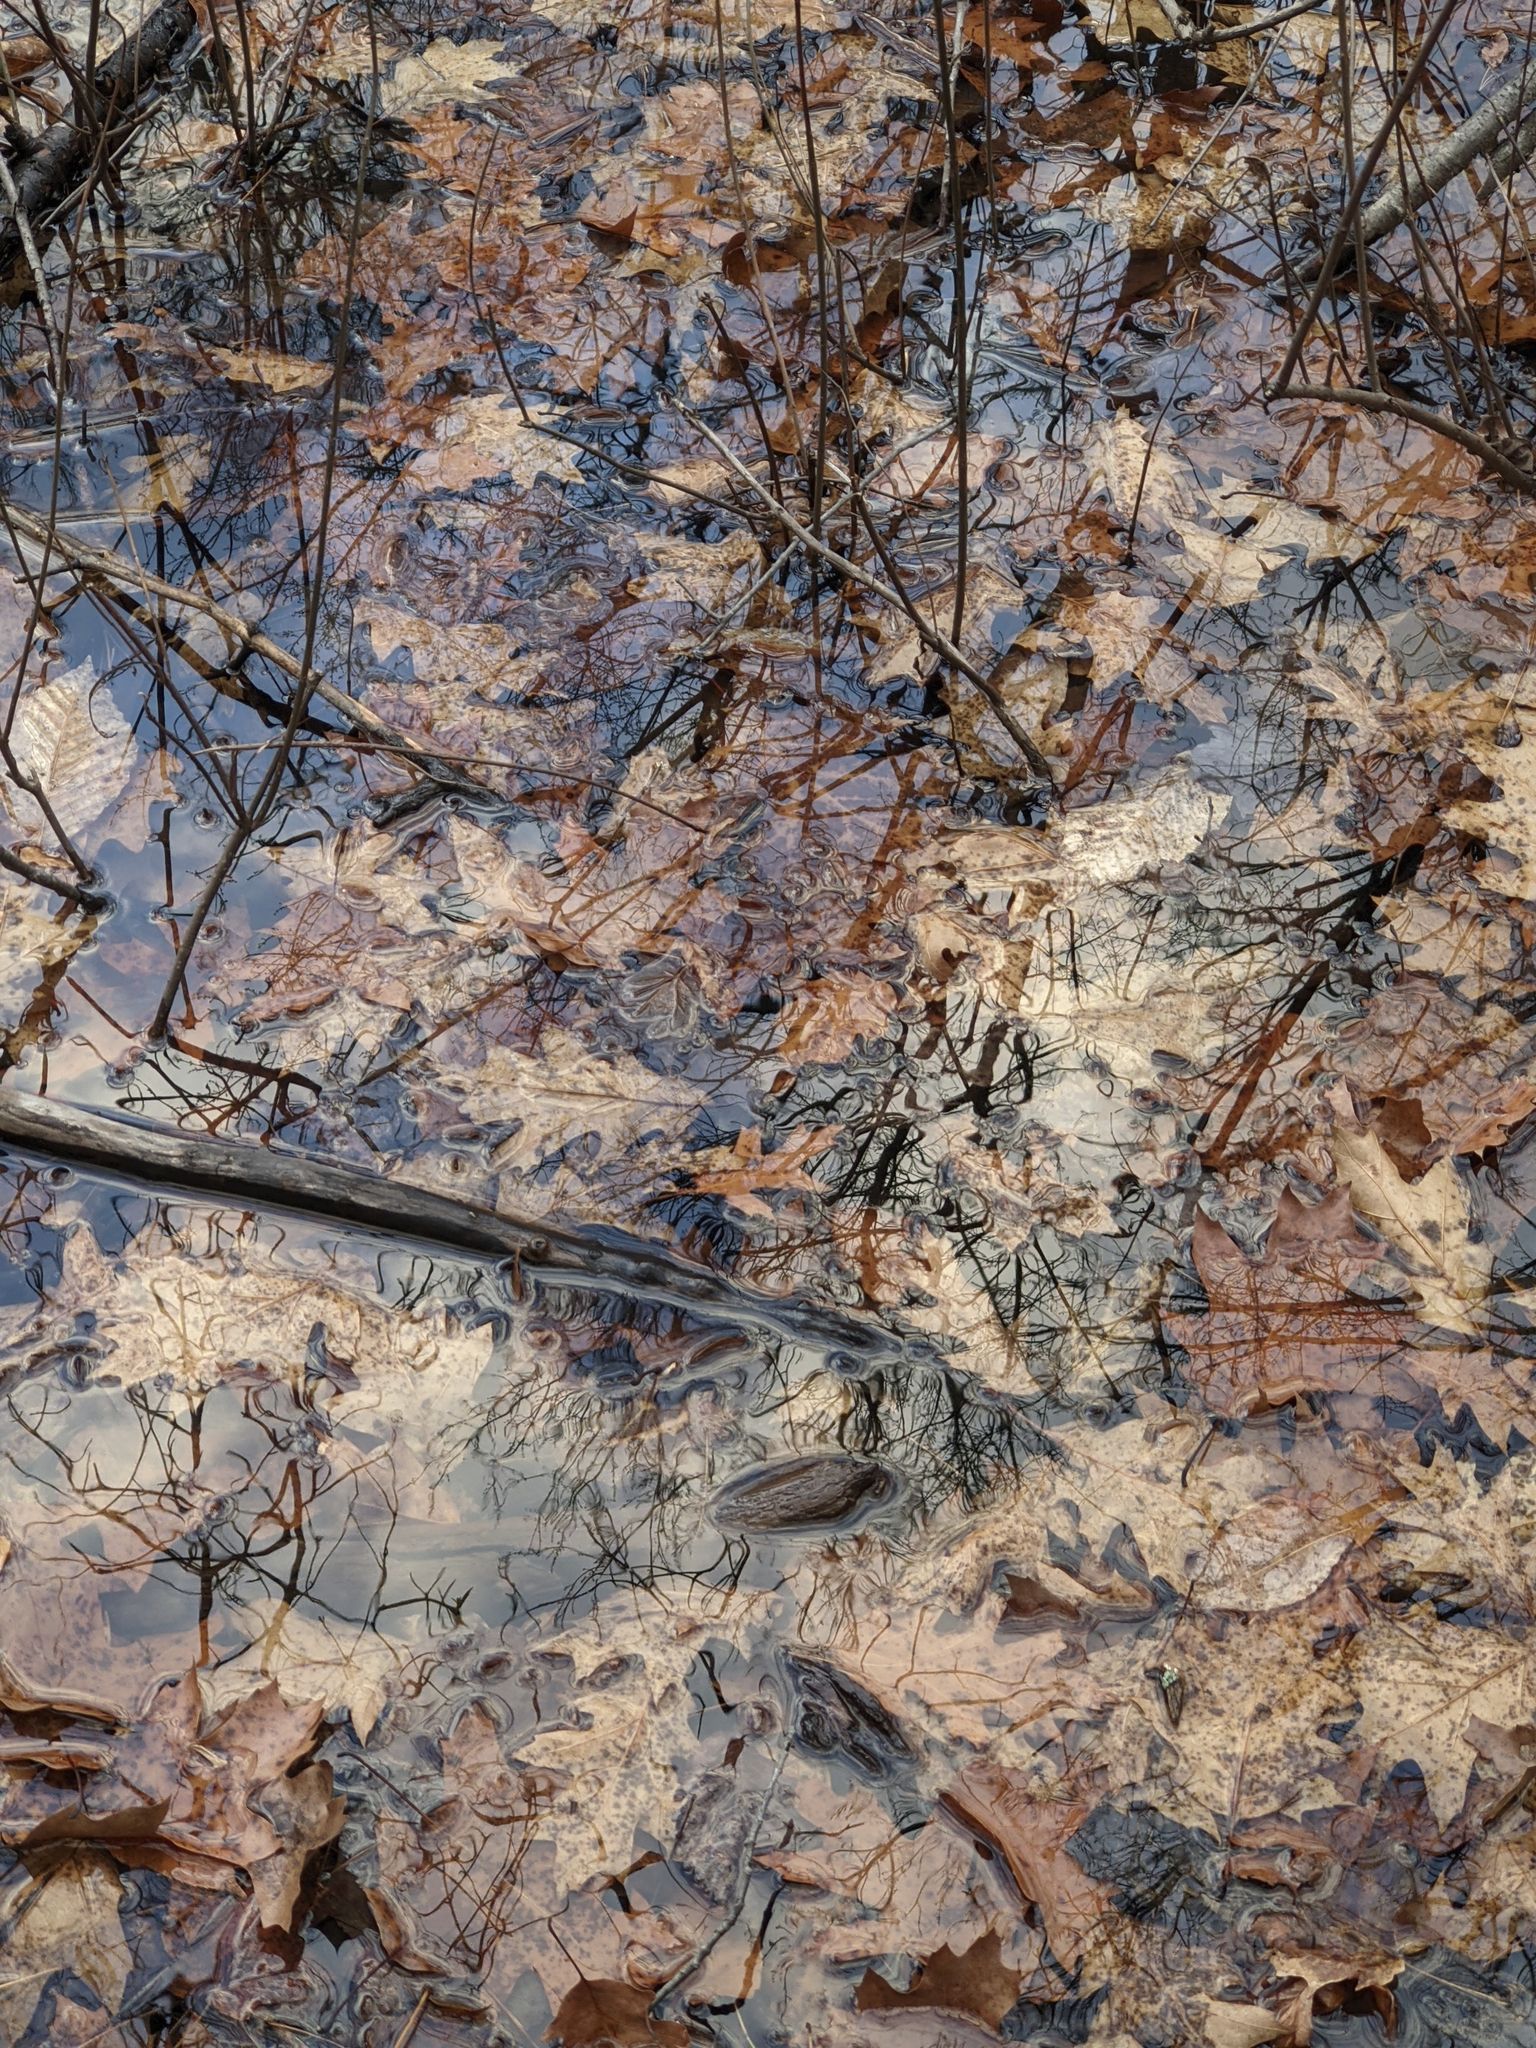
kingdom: Plantae
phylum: Tracheophyta
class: Magnoliopsida
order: Fagales
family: Fagaceae
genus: Quercus
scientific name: Quercus rubra
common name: Red oak
